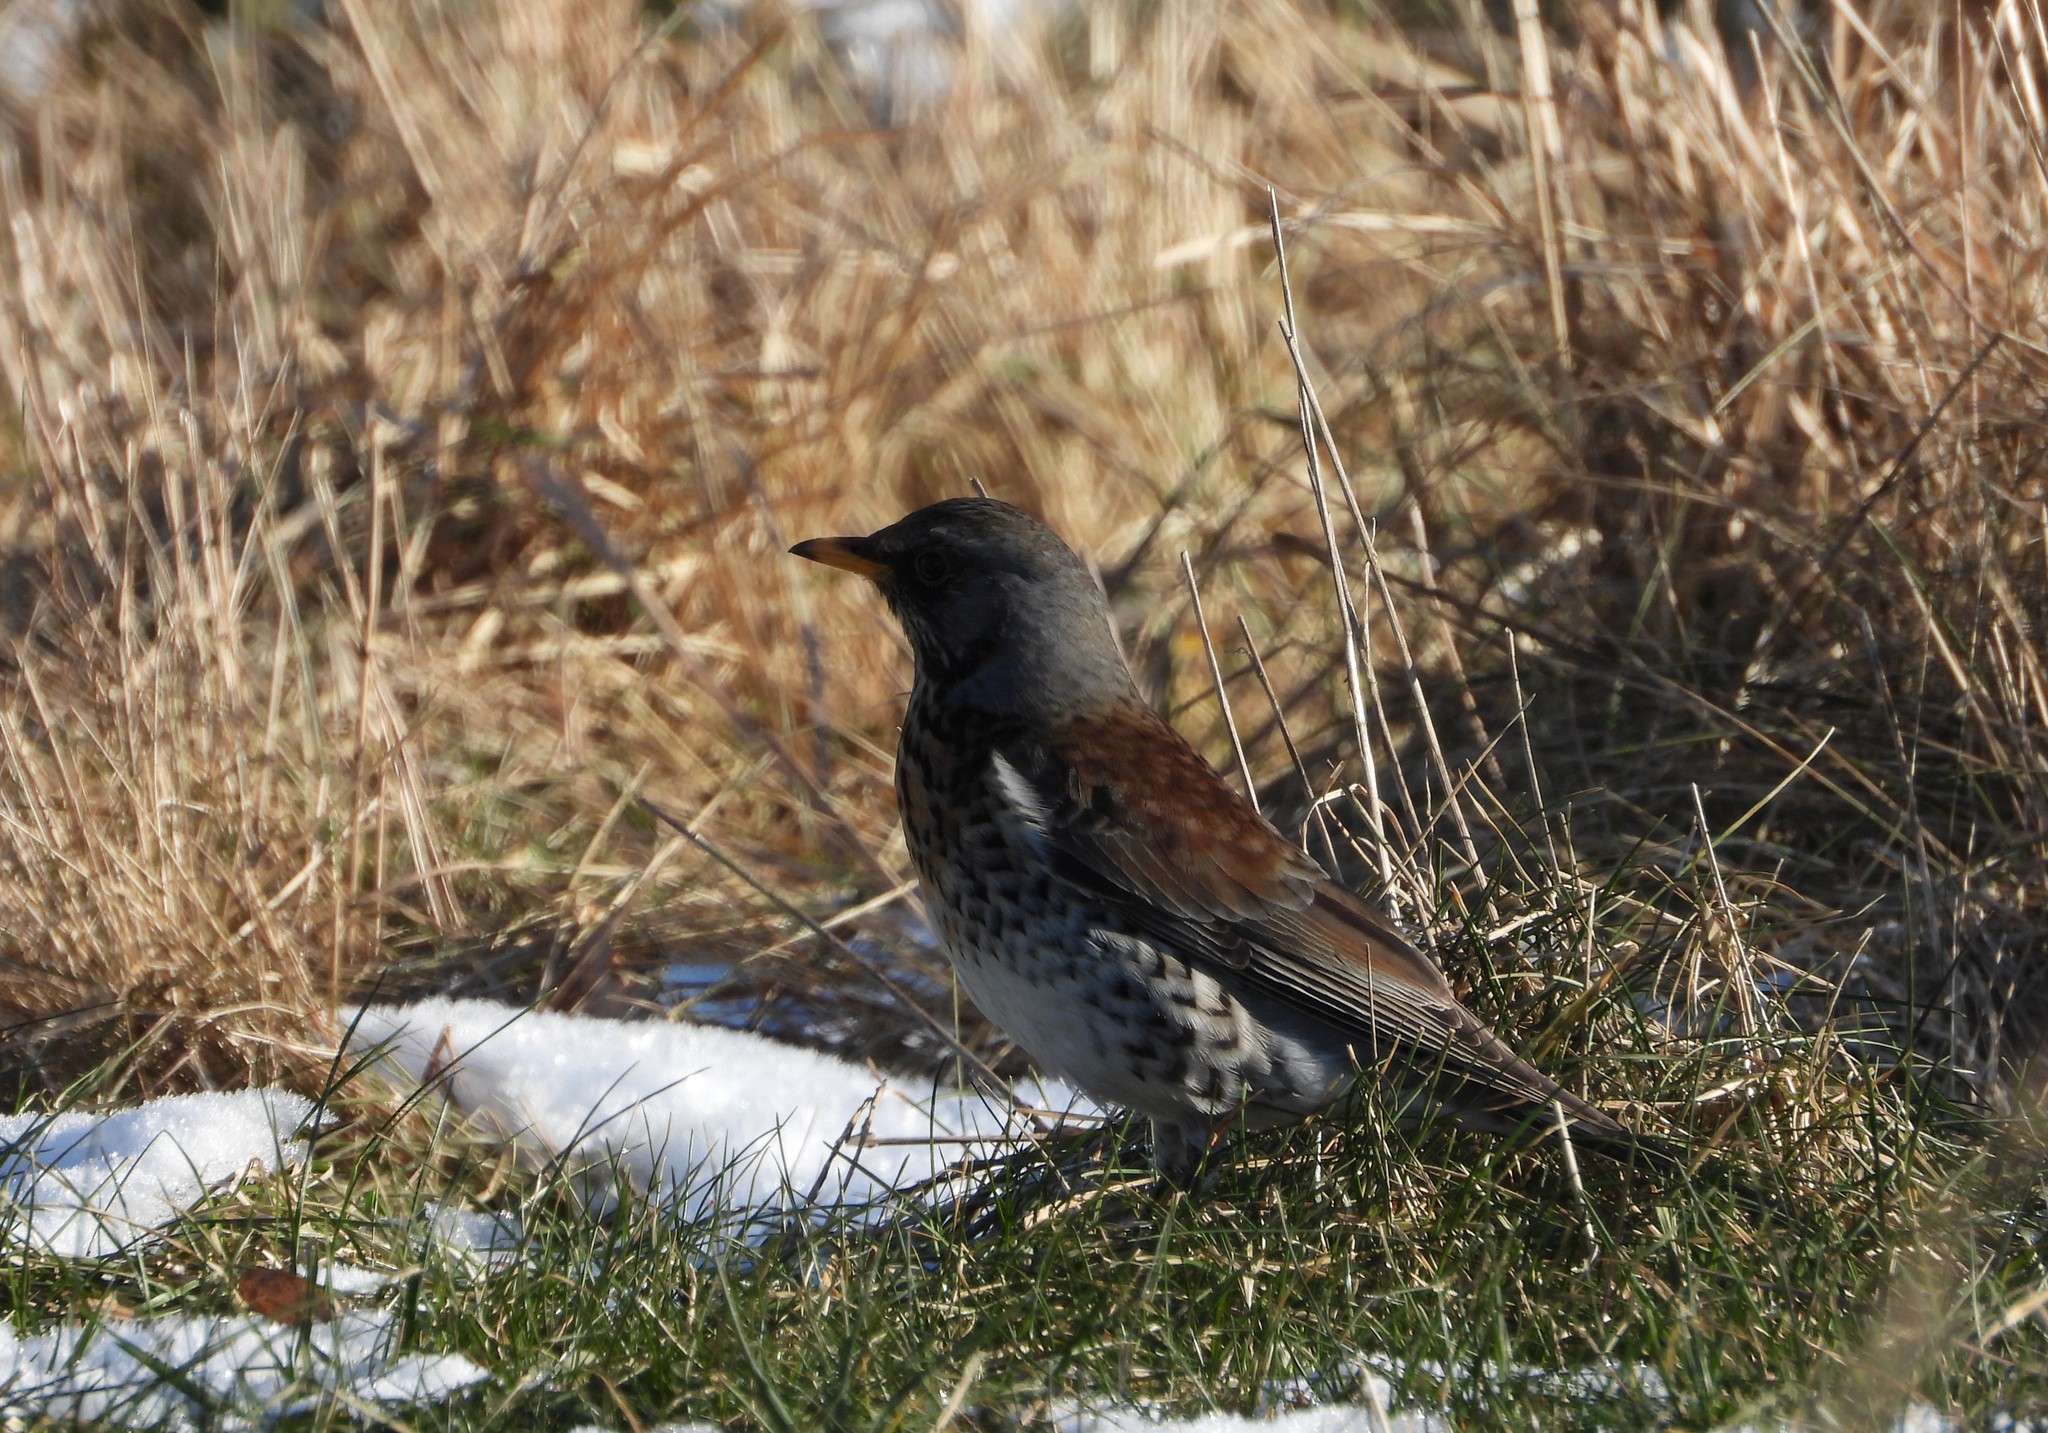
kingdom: Animalia
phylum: Chordata
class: Aves
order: Passeriformes
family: Turdidae
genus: Turdus
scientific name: Turdus pilaris
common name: Fieldfare
